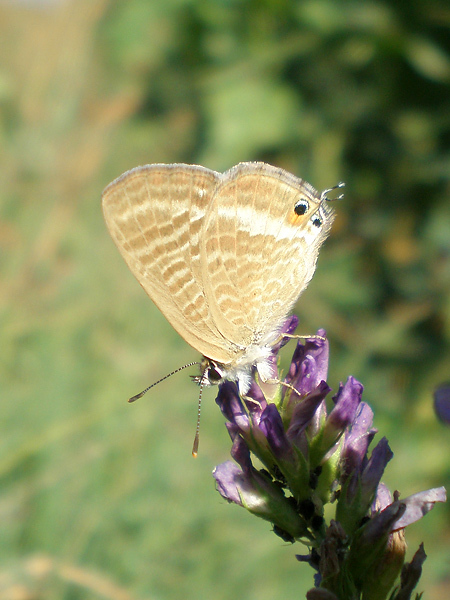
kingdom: Animalia
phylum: Arthropoda
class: Insecta
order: Lepidoptera
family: Lycaenidae
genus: Lampides
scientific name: Lampides boeticus
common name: Long-tailed blue
